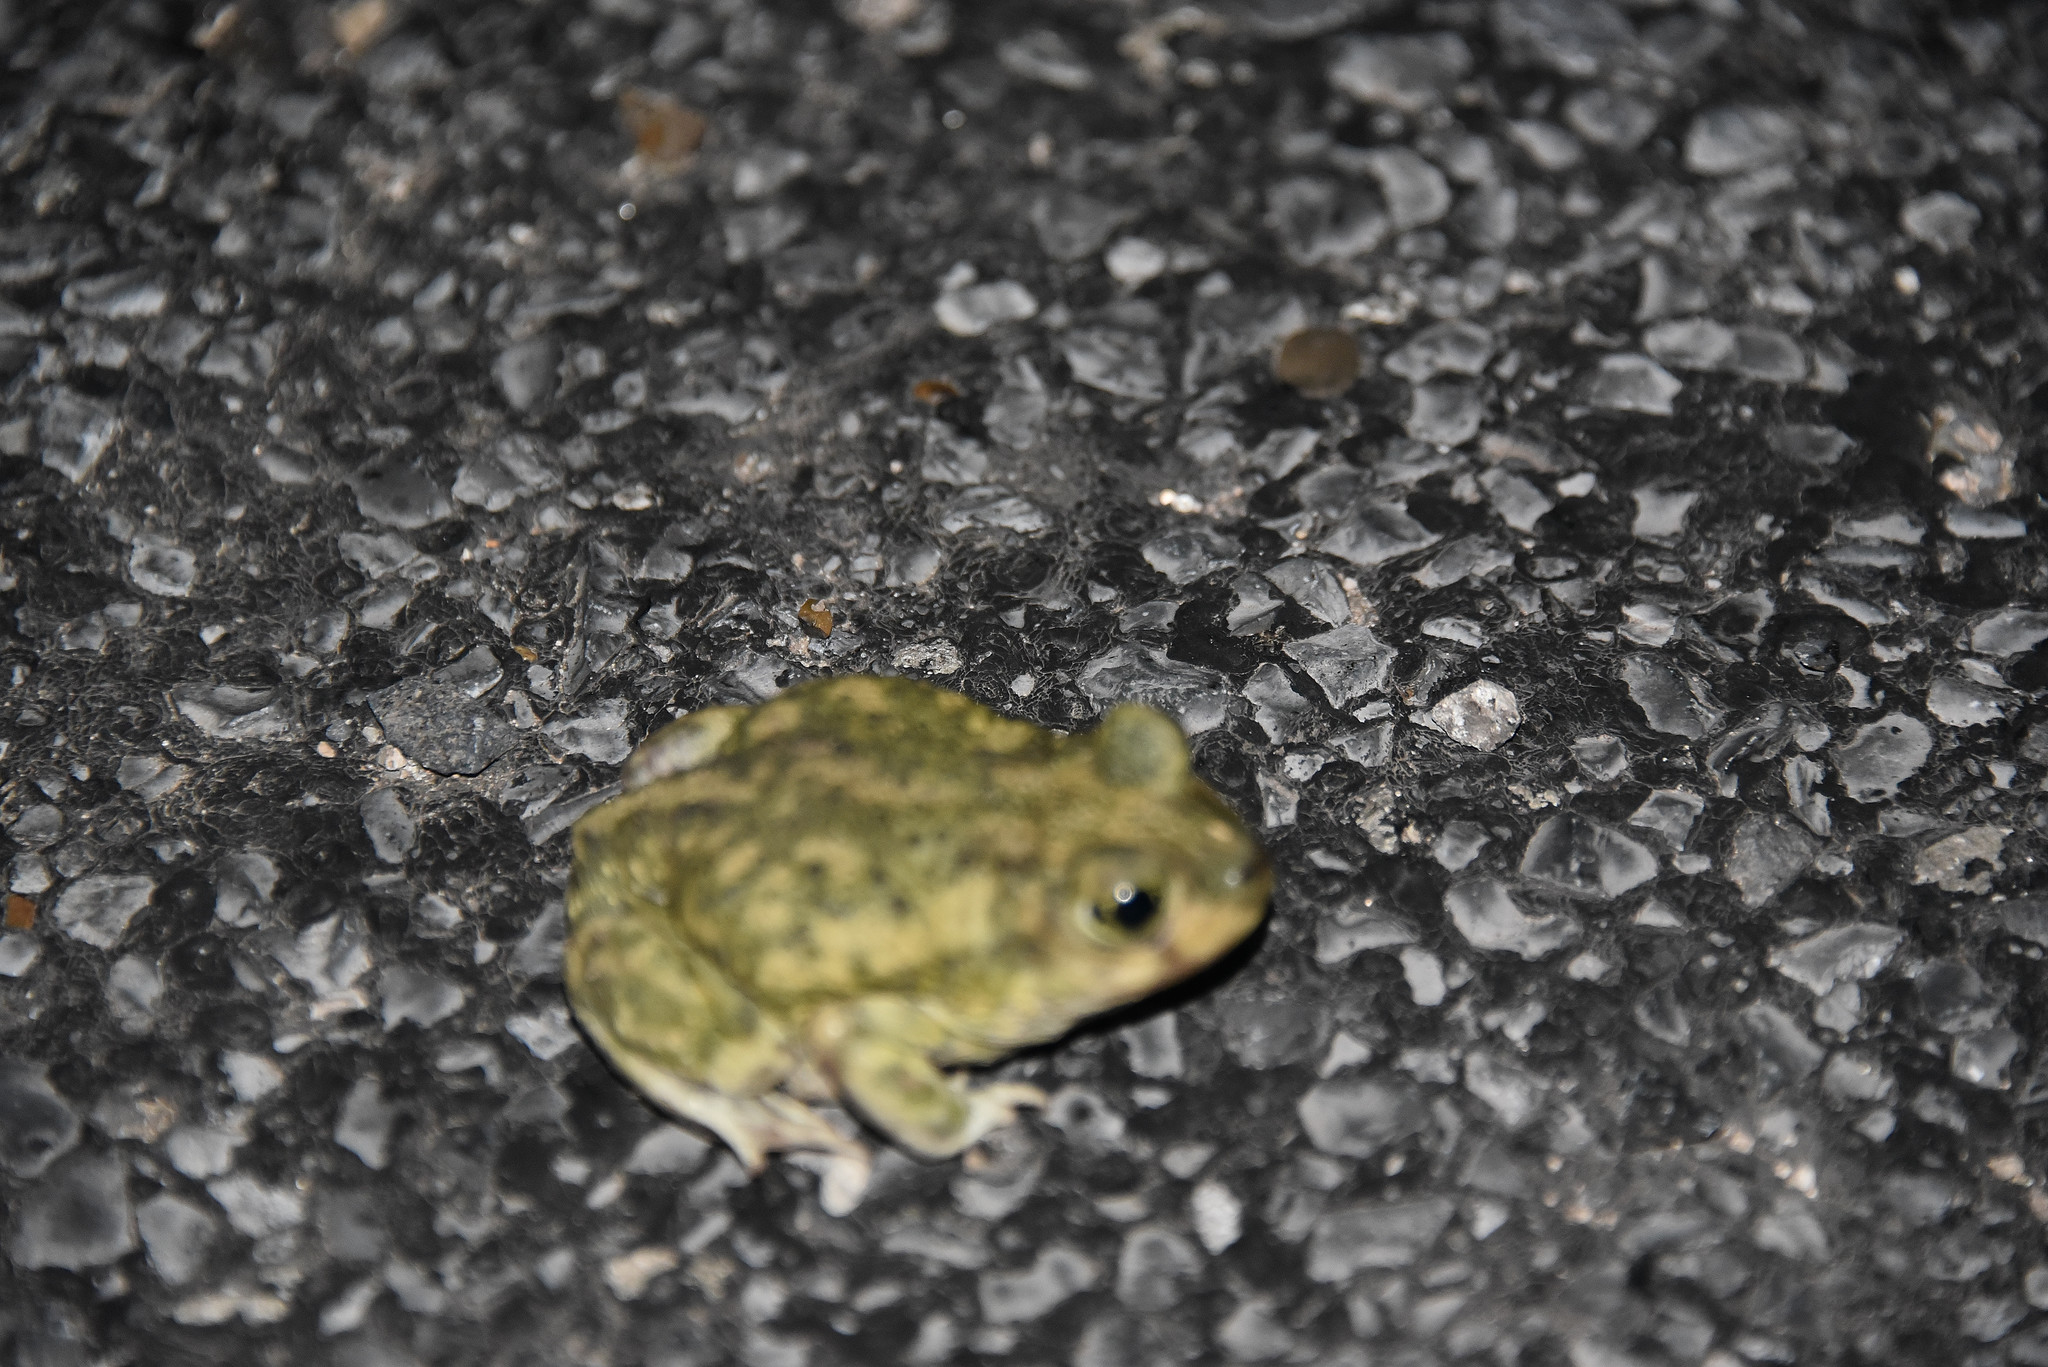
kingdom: Animalia
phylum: Chordata
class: Amphibia
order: Anura
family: Scaphiopodidae
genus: Scaphiopus
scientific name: Scaphiopus couchii
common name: Couch's spadefoot toad
